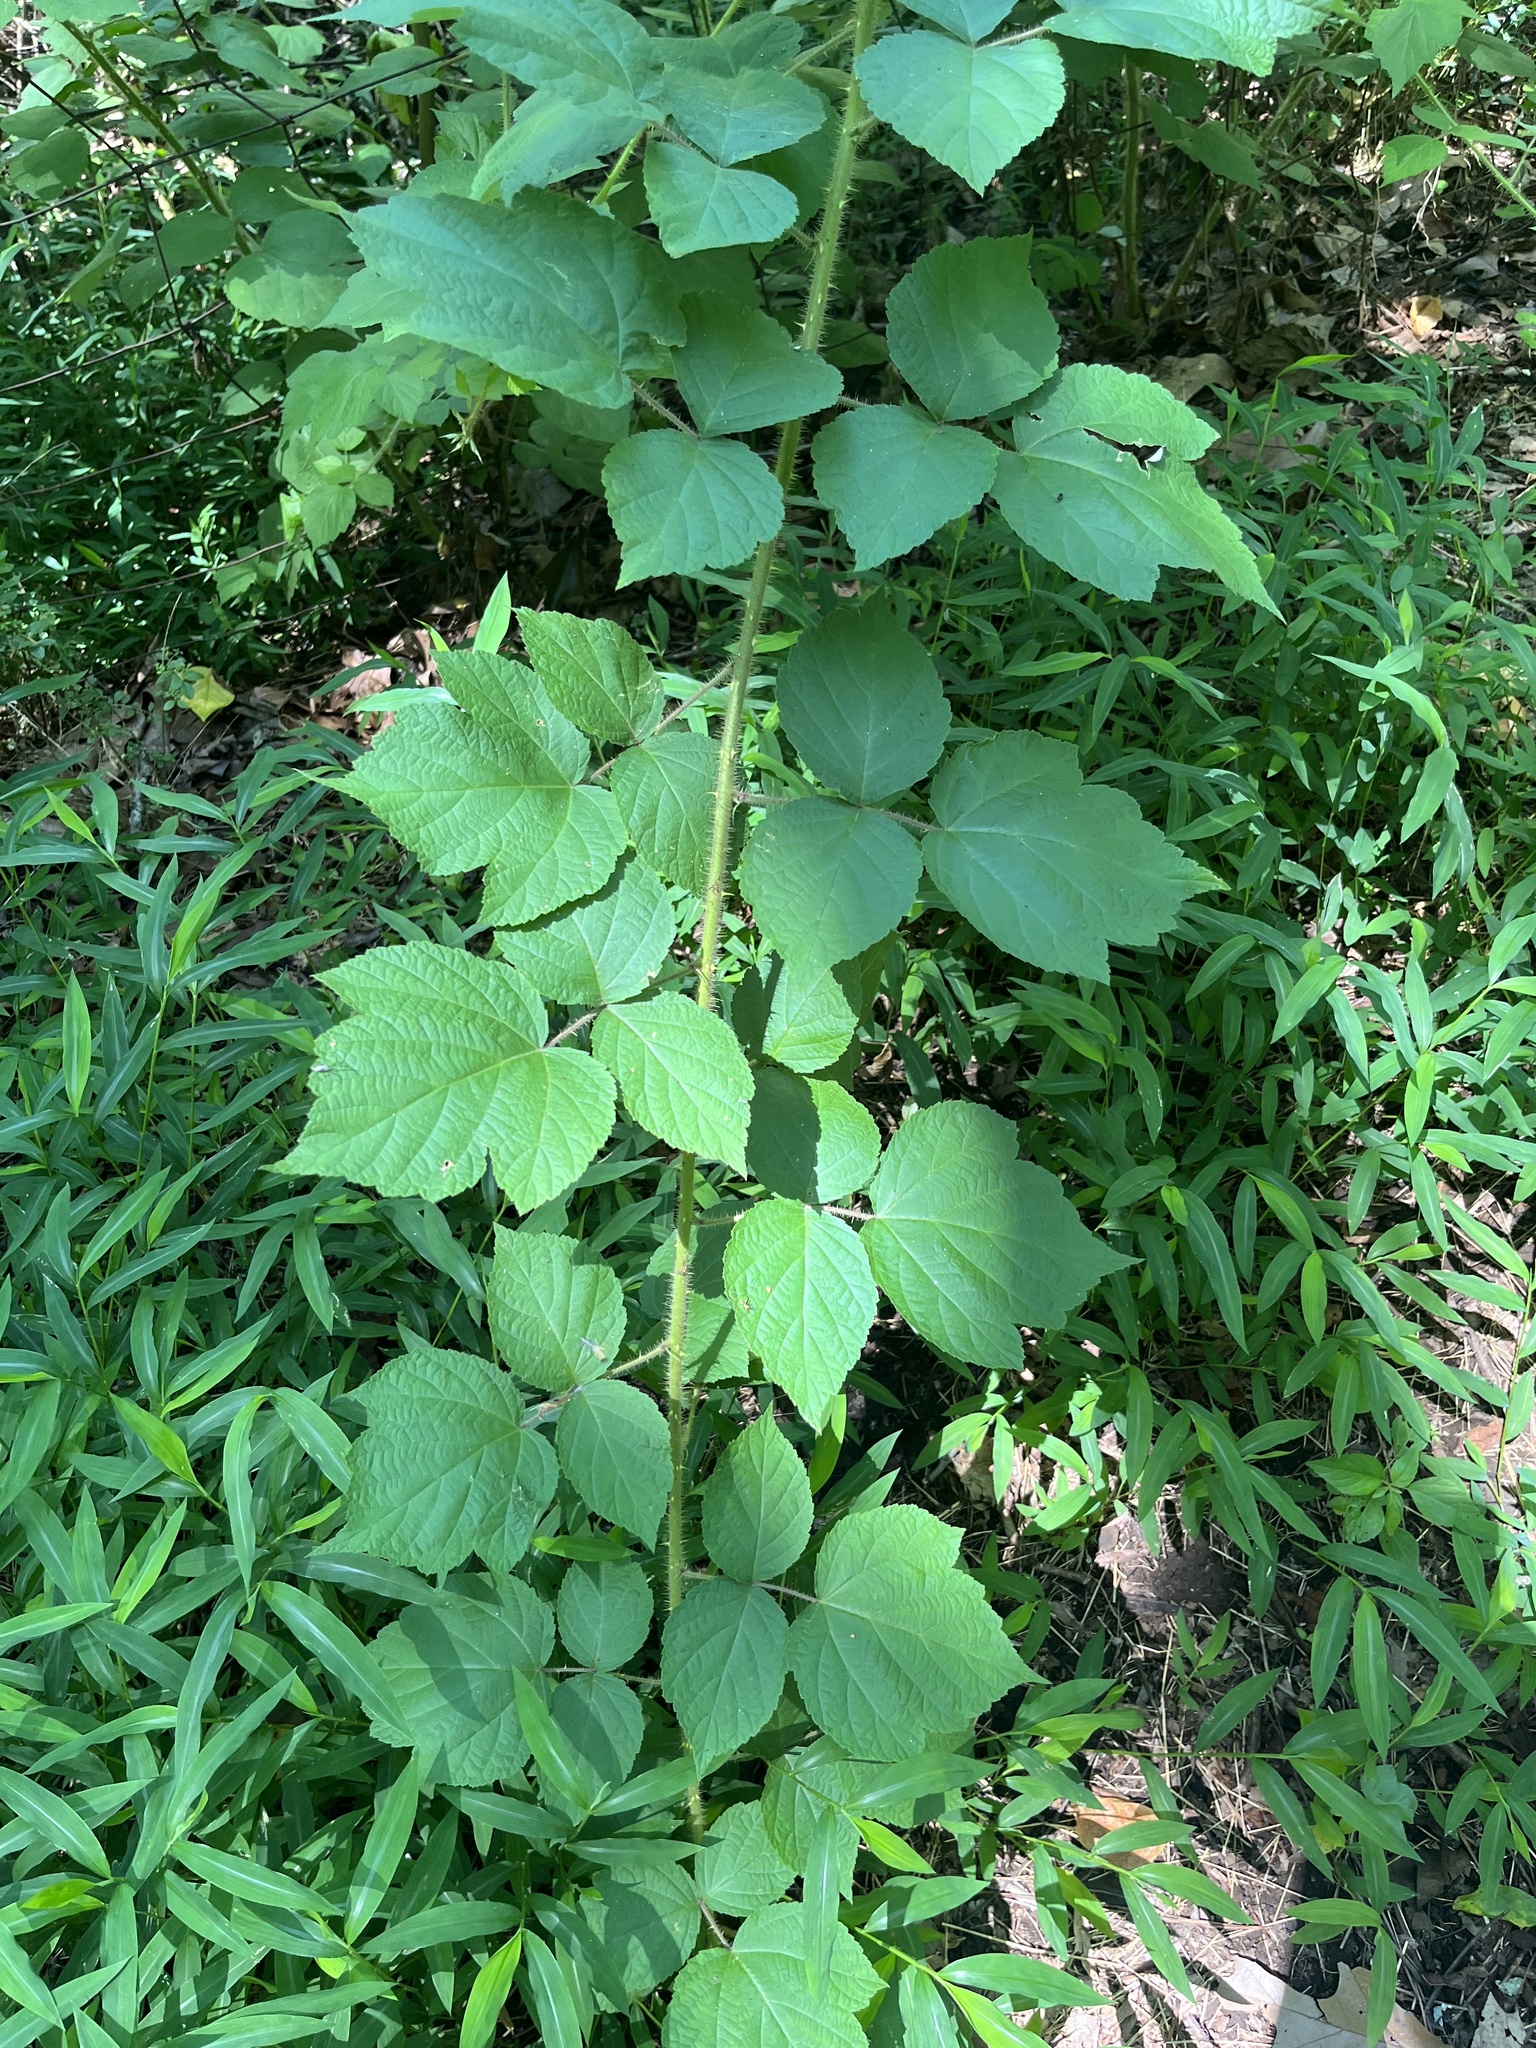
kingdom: Plantae
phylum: Tracheophyta
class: Magnoliopsida
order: Rosales
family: Rosaceae
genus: Rubus
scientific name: Rubus phoenicolasius
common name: Japanese wineberry
